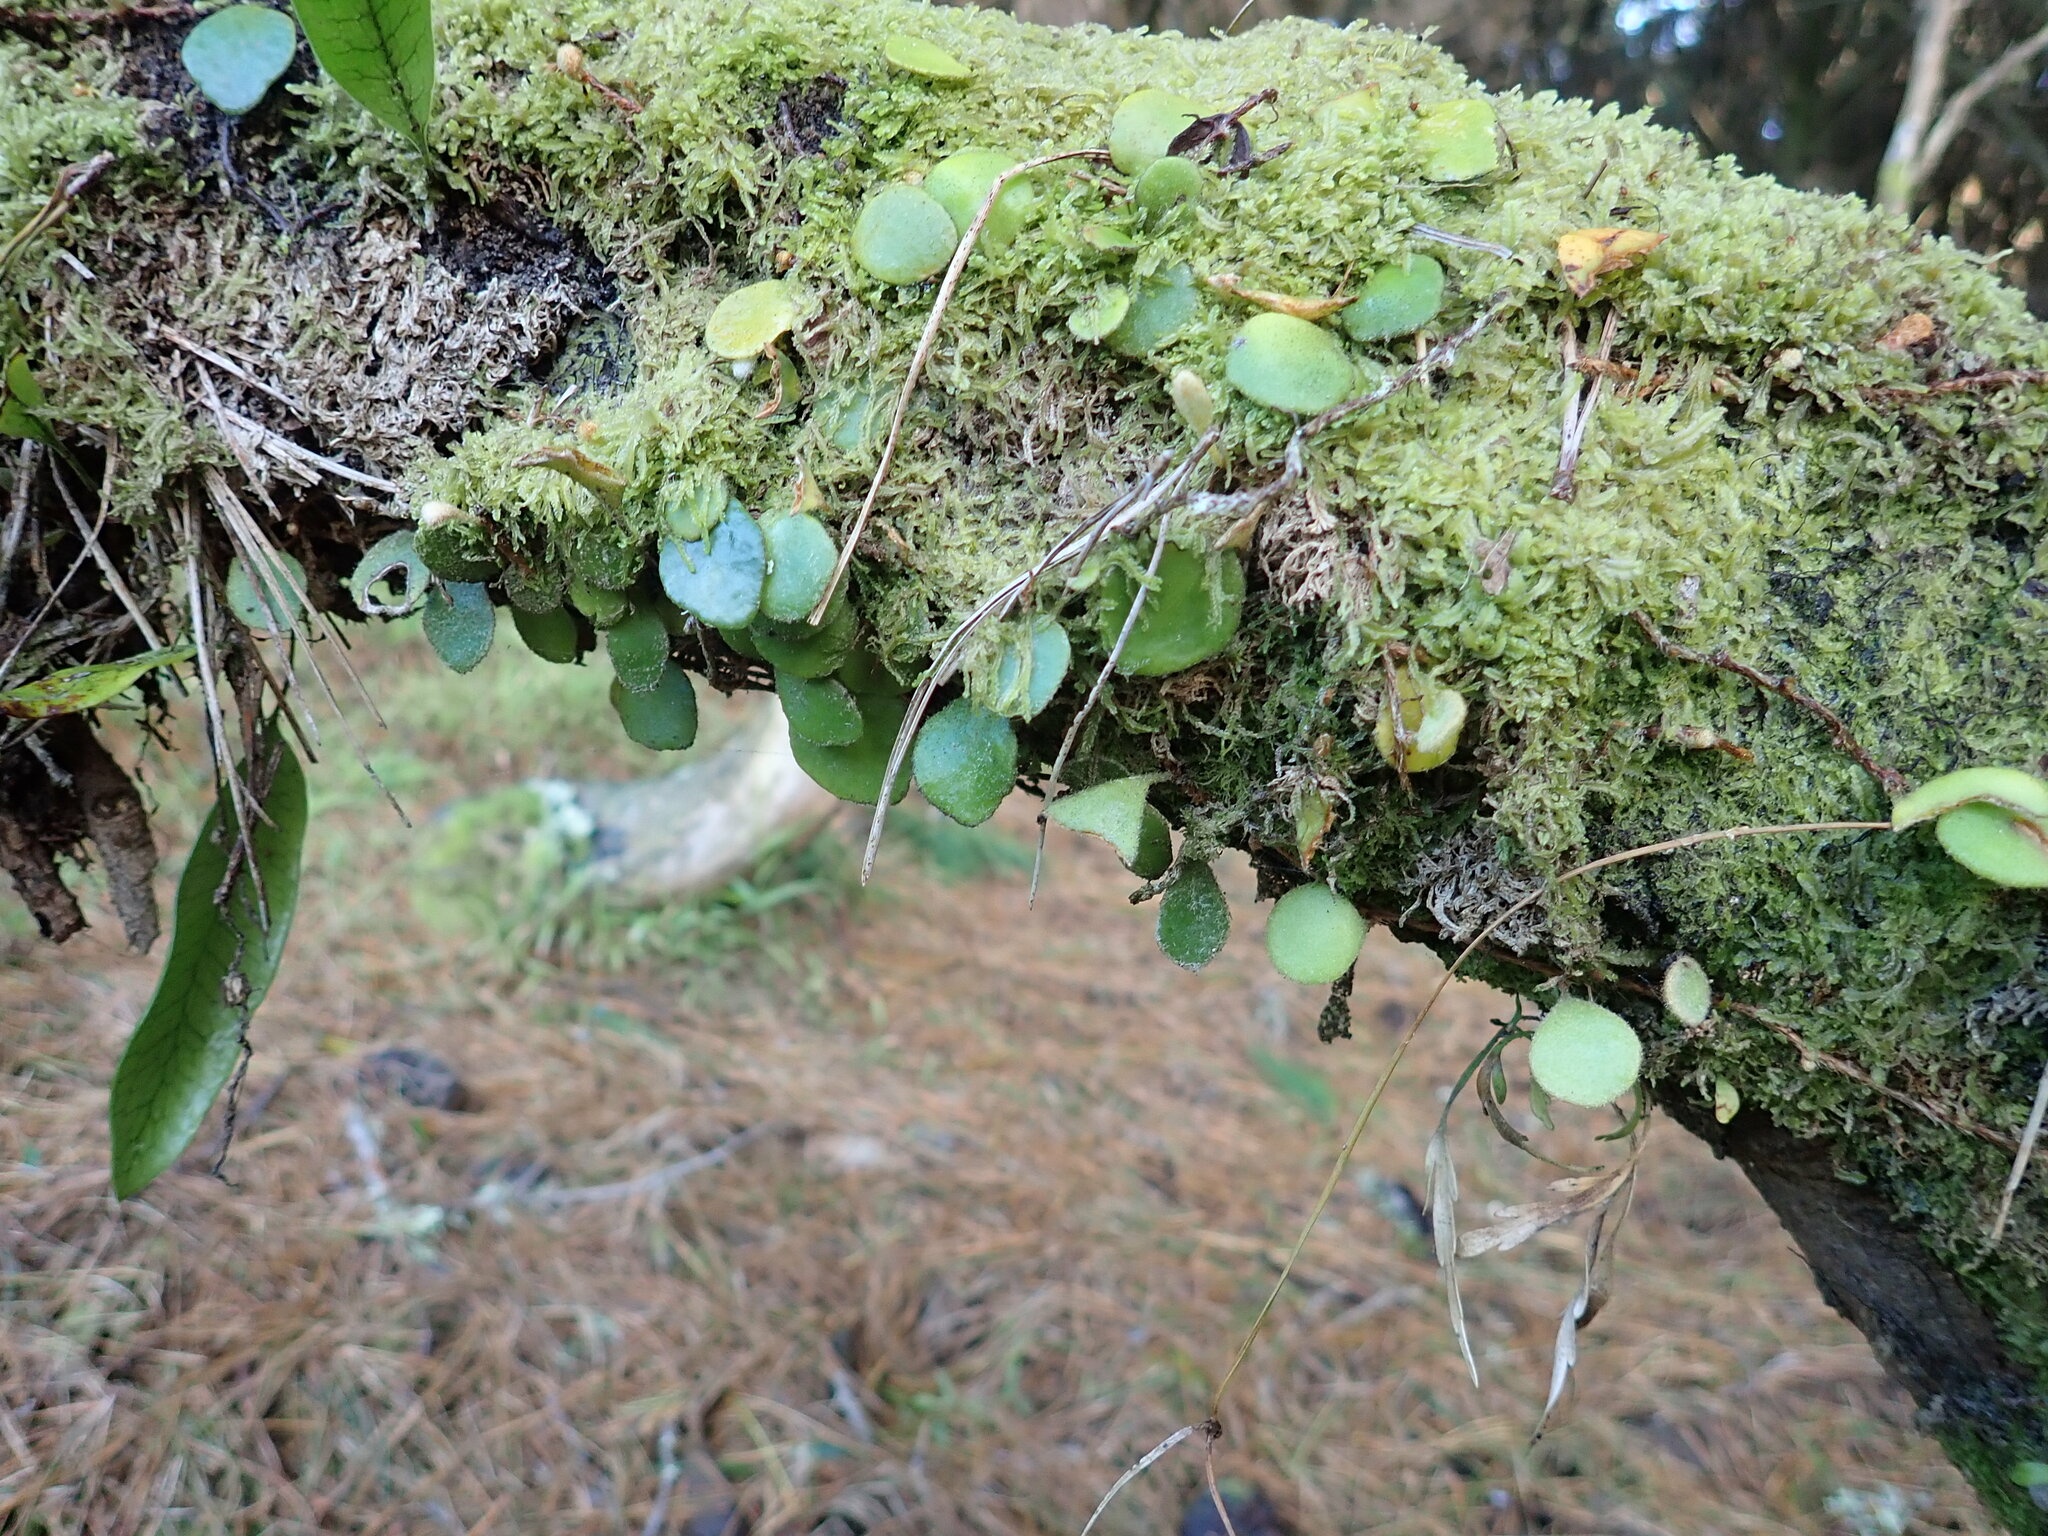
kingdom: Plantae
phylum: Tracheophyta
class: Polypodiopsida
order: Polypodiales
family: Polypodiaceae
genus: Pyrrosia
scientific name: Pyrrosia eleagnifolia
